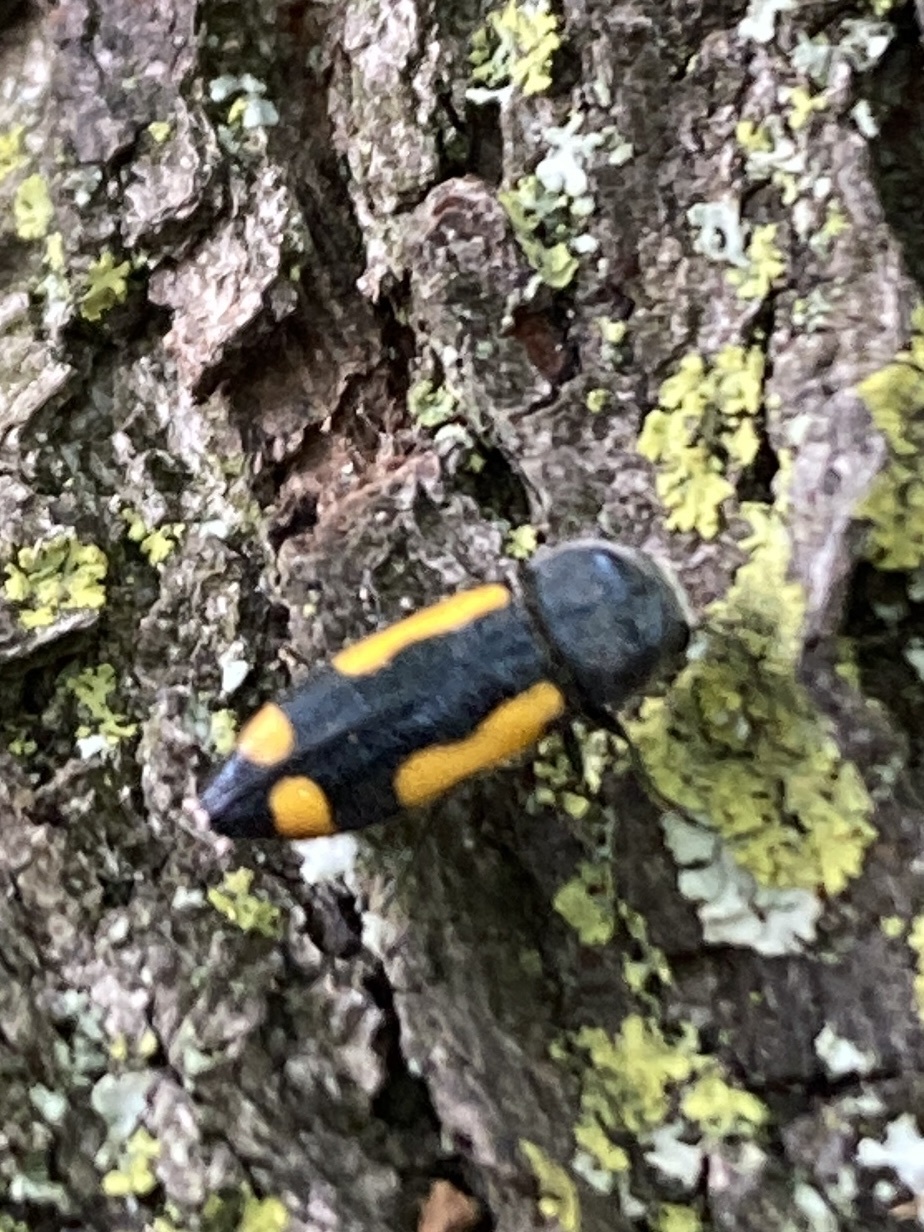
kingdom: Animalia
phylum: Arthropoda
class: Insecta
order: Coleoptera
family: Buprestidae
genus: Ptosima
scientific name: Ptosima gibbicollis
